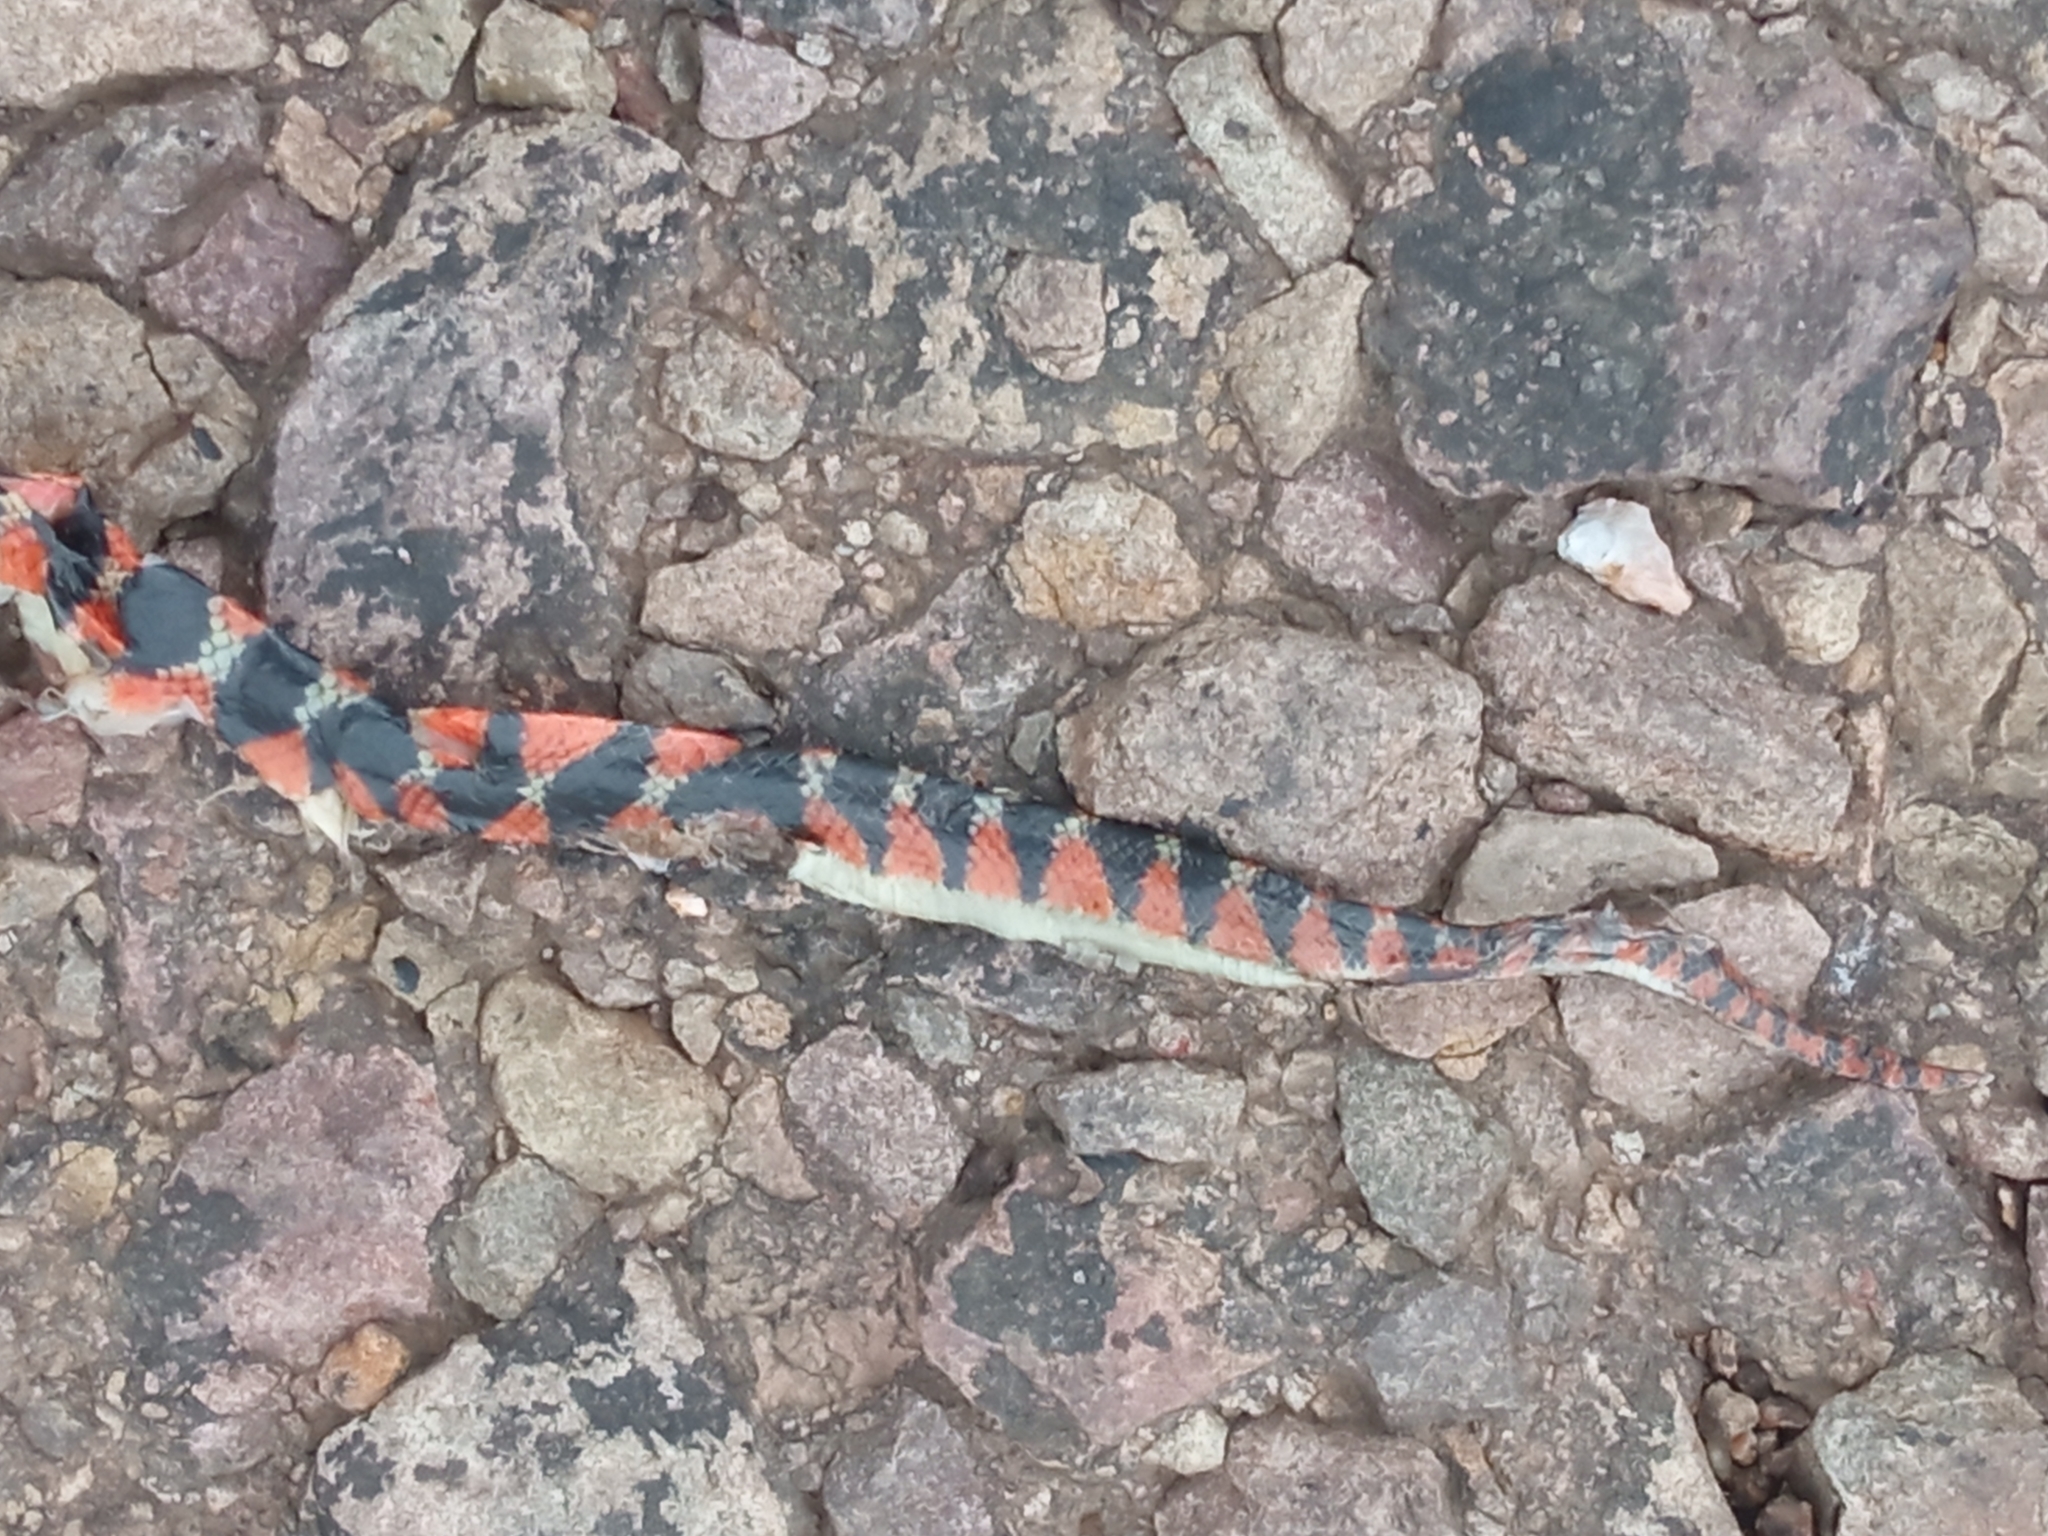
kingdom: Animalia
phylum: Chordata
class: Squamata
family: Colubridae
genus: Oxyrhopus
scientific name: Oxyrhopus rhombifer
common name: Amazon false coral snake
